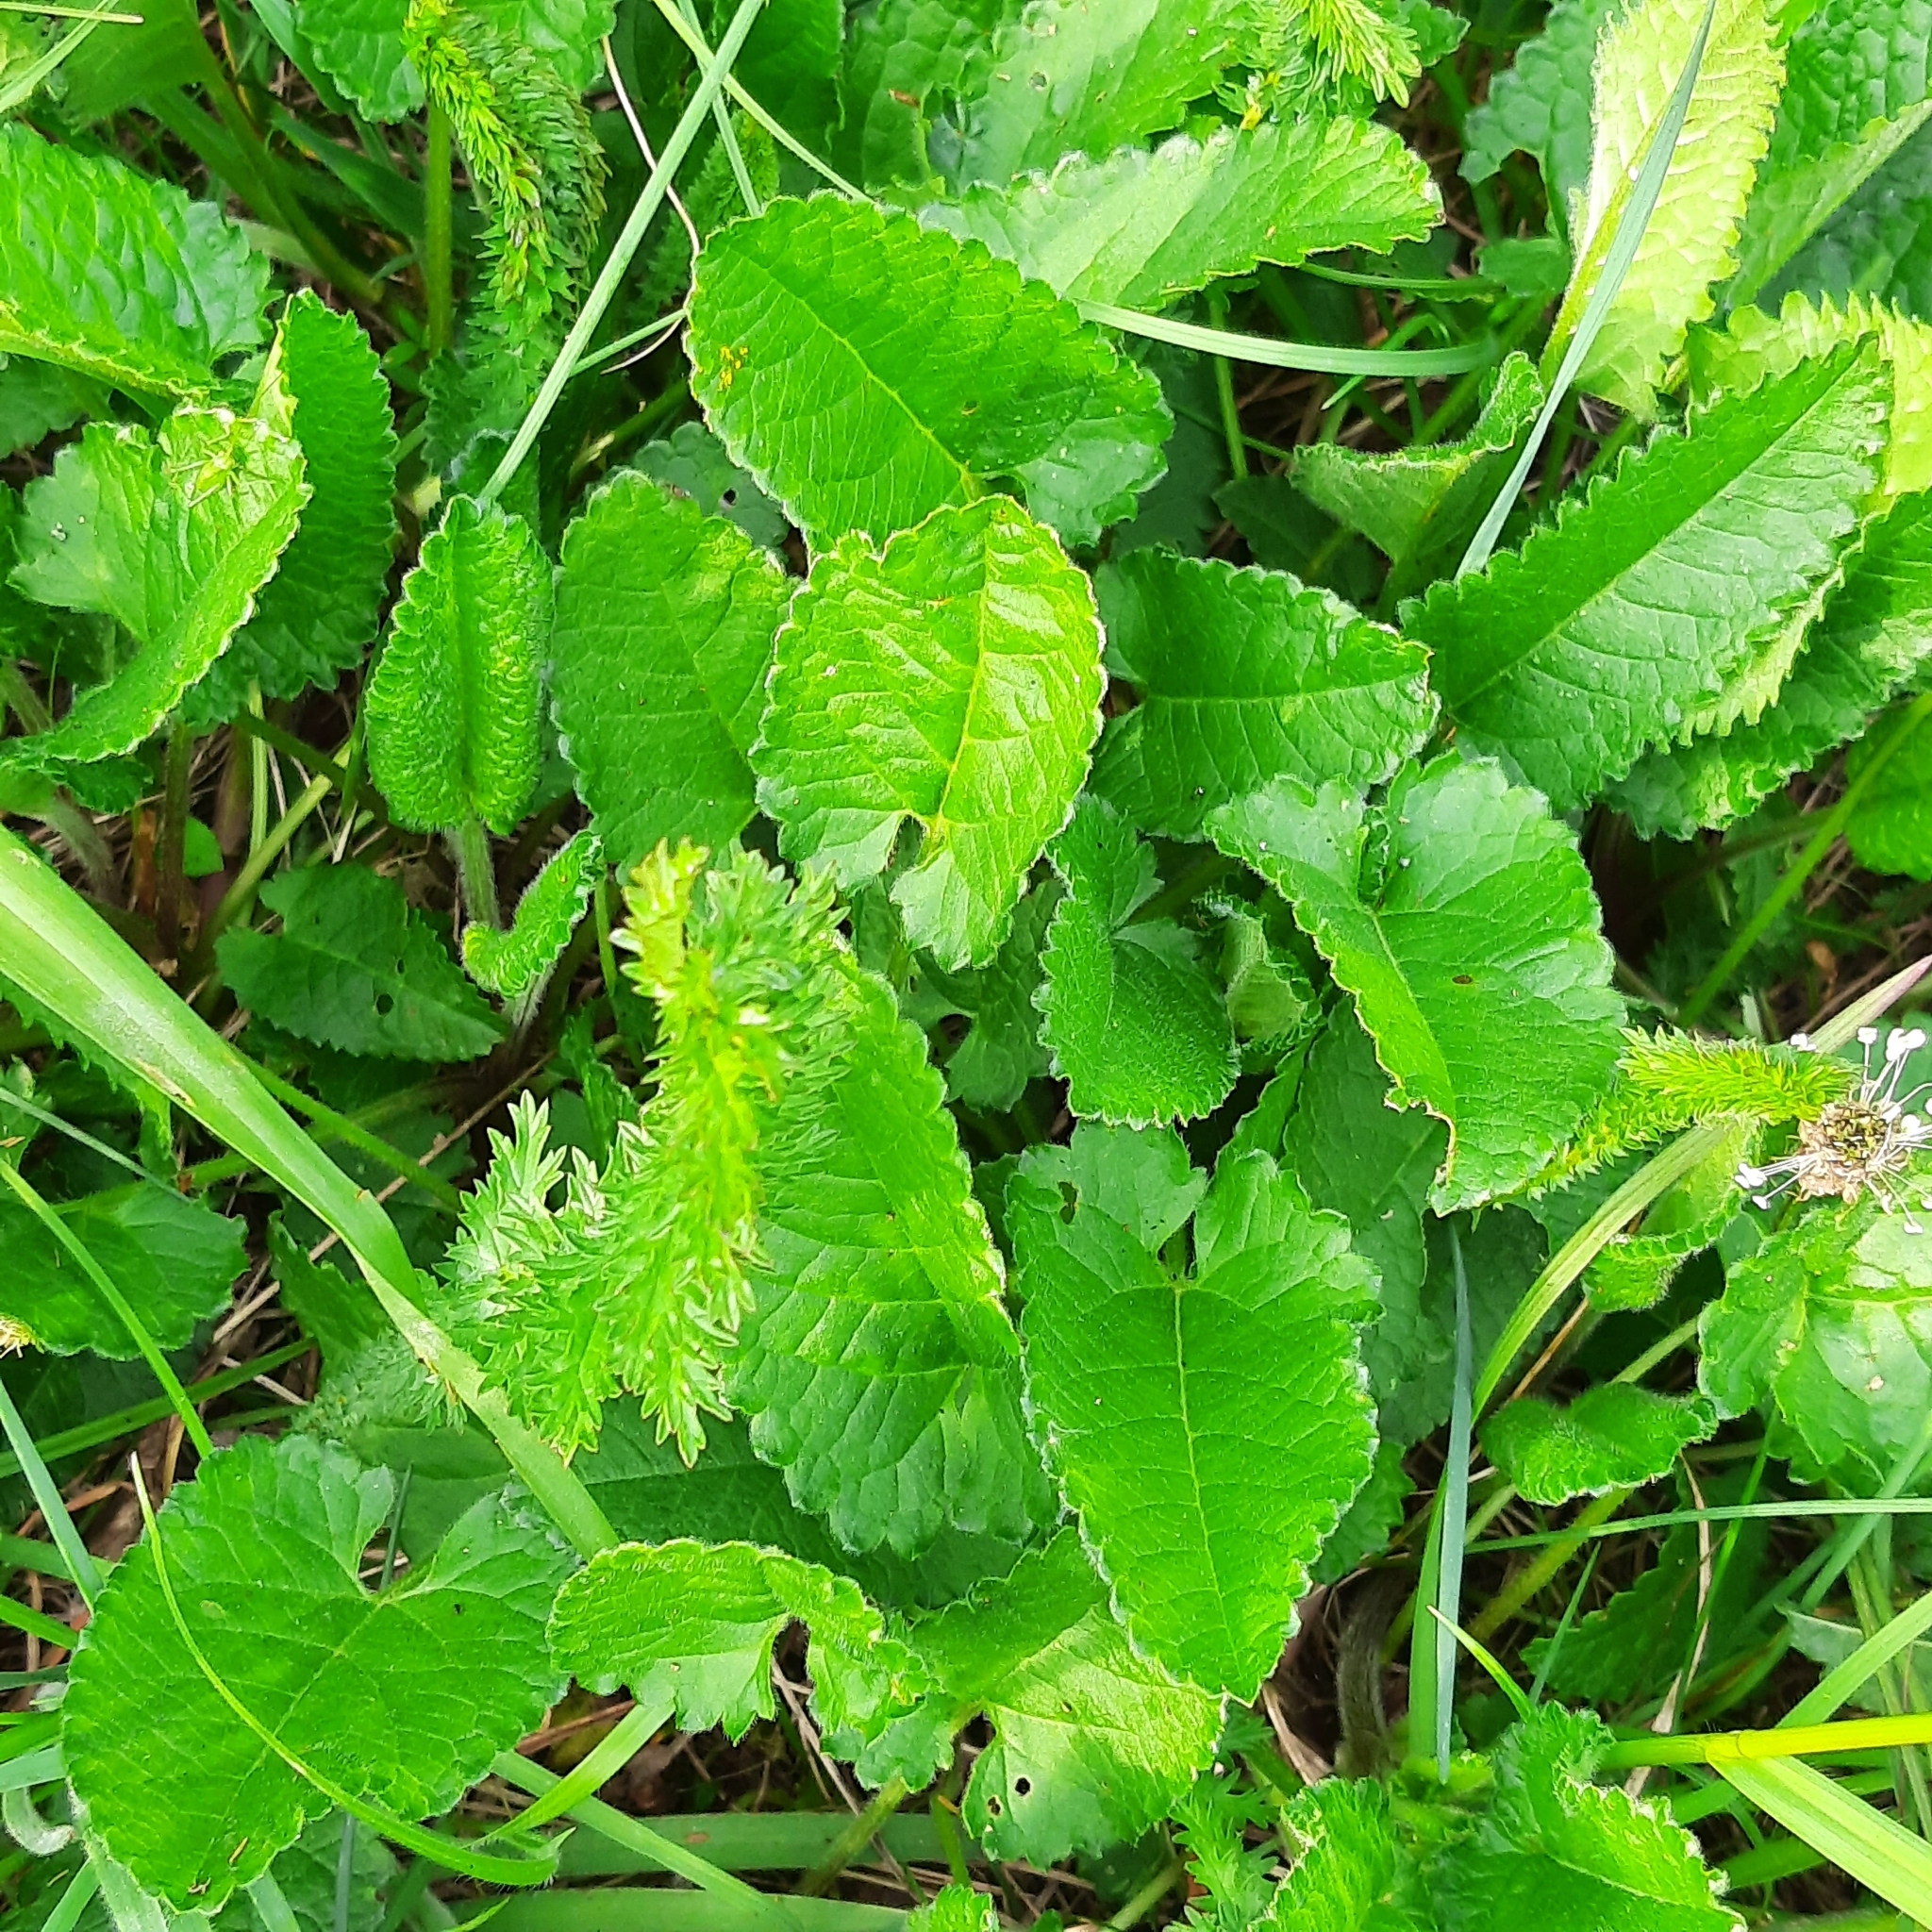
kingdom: Plantae
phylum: Tracheophyta
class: Magnoliopsida
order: Lamiales
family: Lamiaceae
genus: Betonica
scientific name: Betonica officinalis
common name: Bishop's-wort
